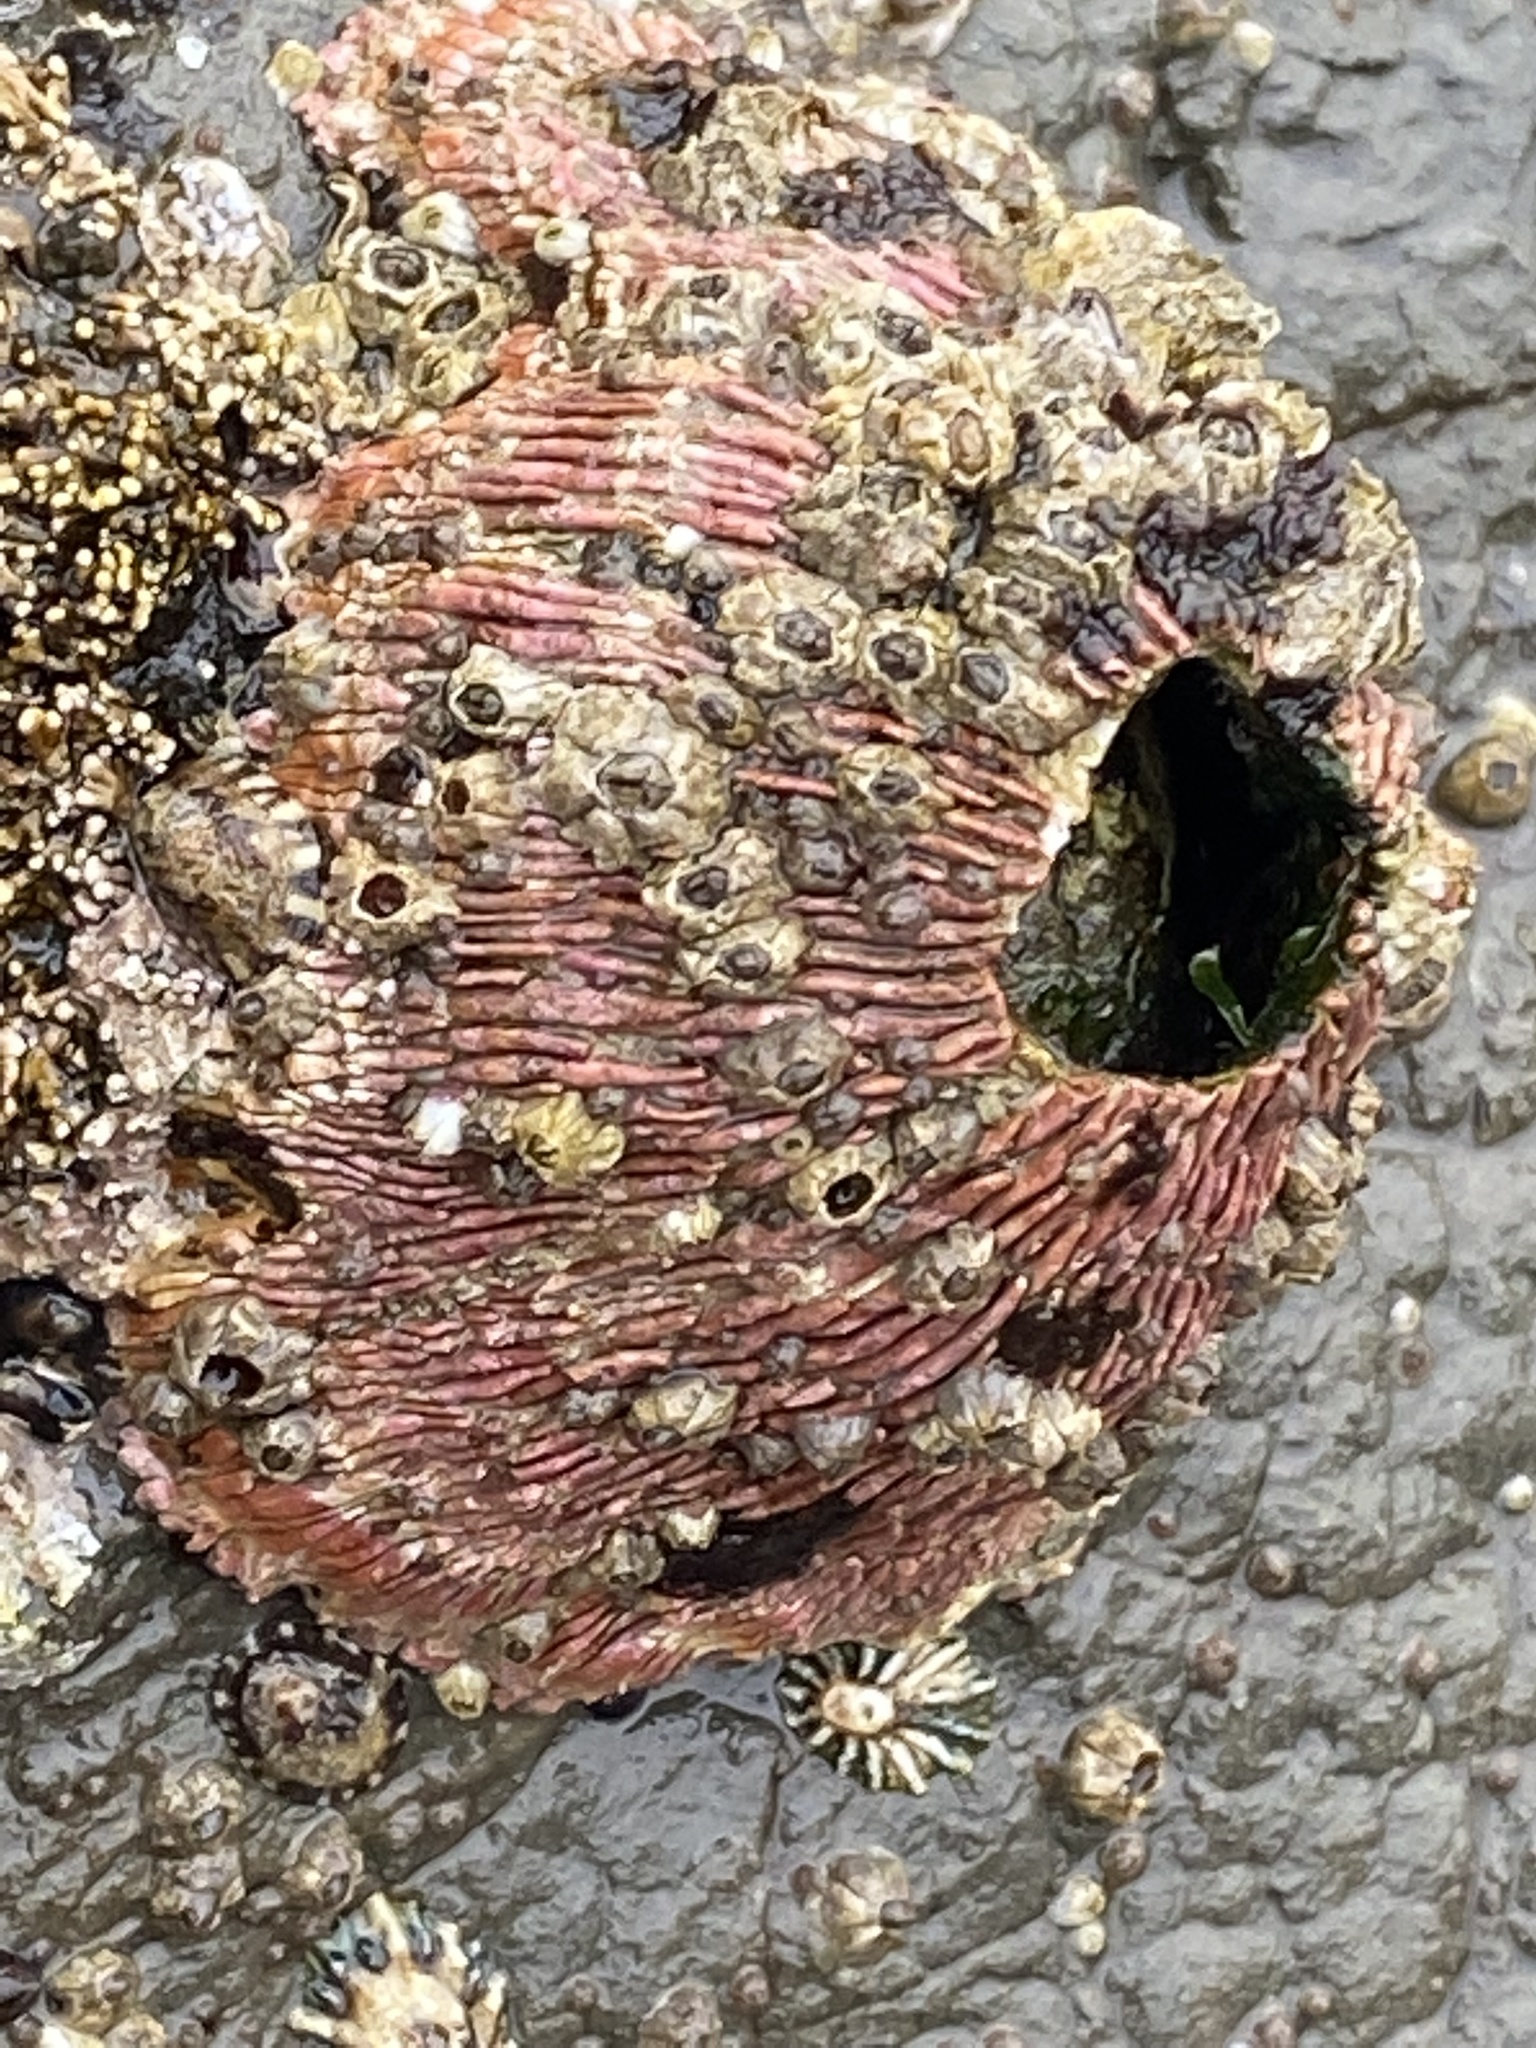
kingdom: Animalia
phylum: Arthropoda
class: Maxillopoda
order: Sessilia
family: Tetraclitidae
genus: Tetraclita
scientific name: Tetraclita rubescens
